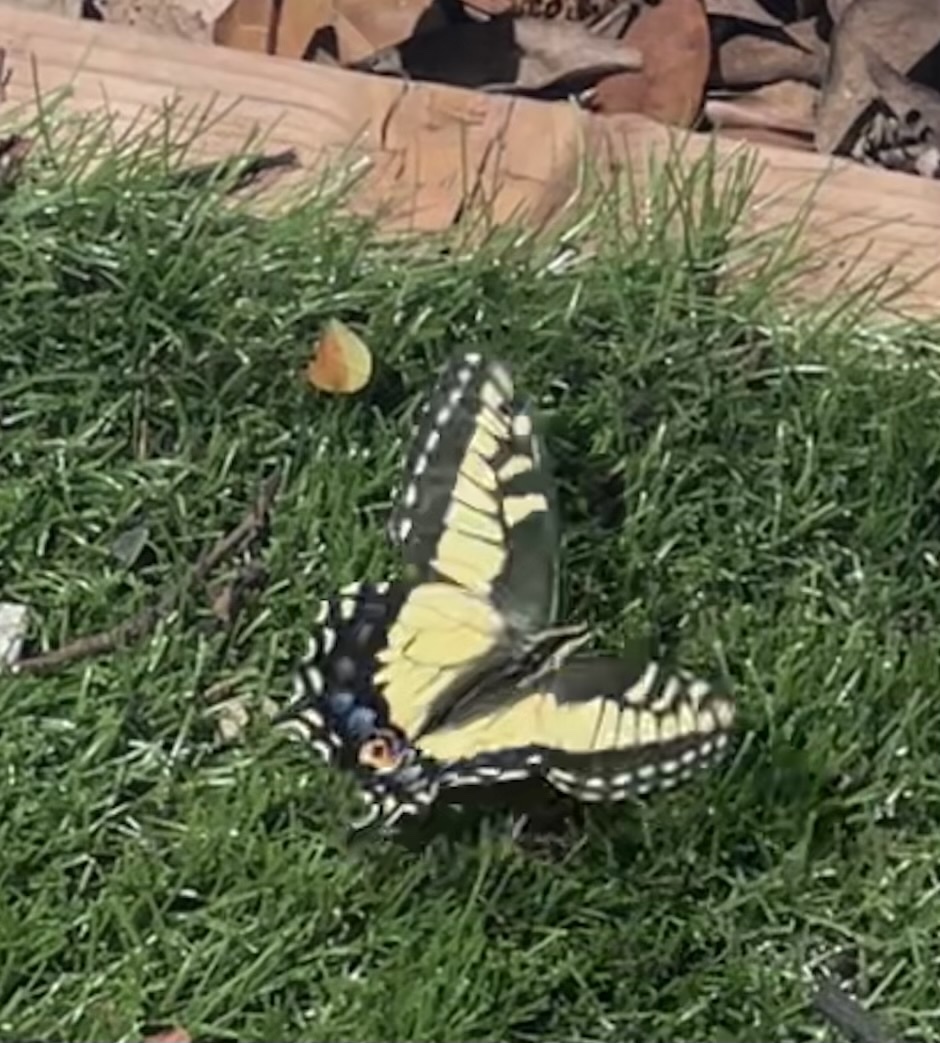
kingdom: Animalia
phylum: Arthropoda
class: Insecta
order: Lepidoptera
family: Papilionidae
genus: Papilio
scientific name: Papilio zelicaon
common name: Anise swallowtail
